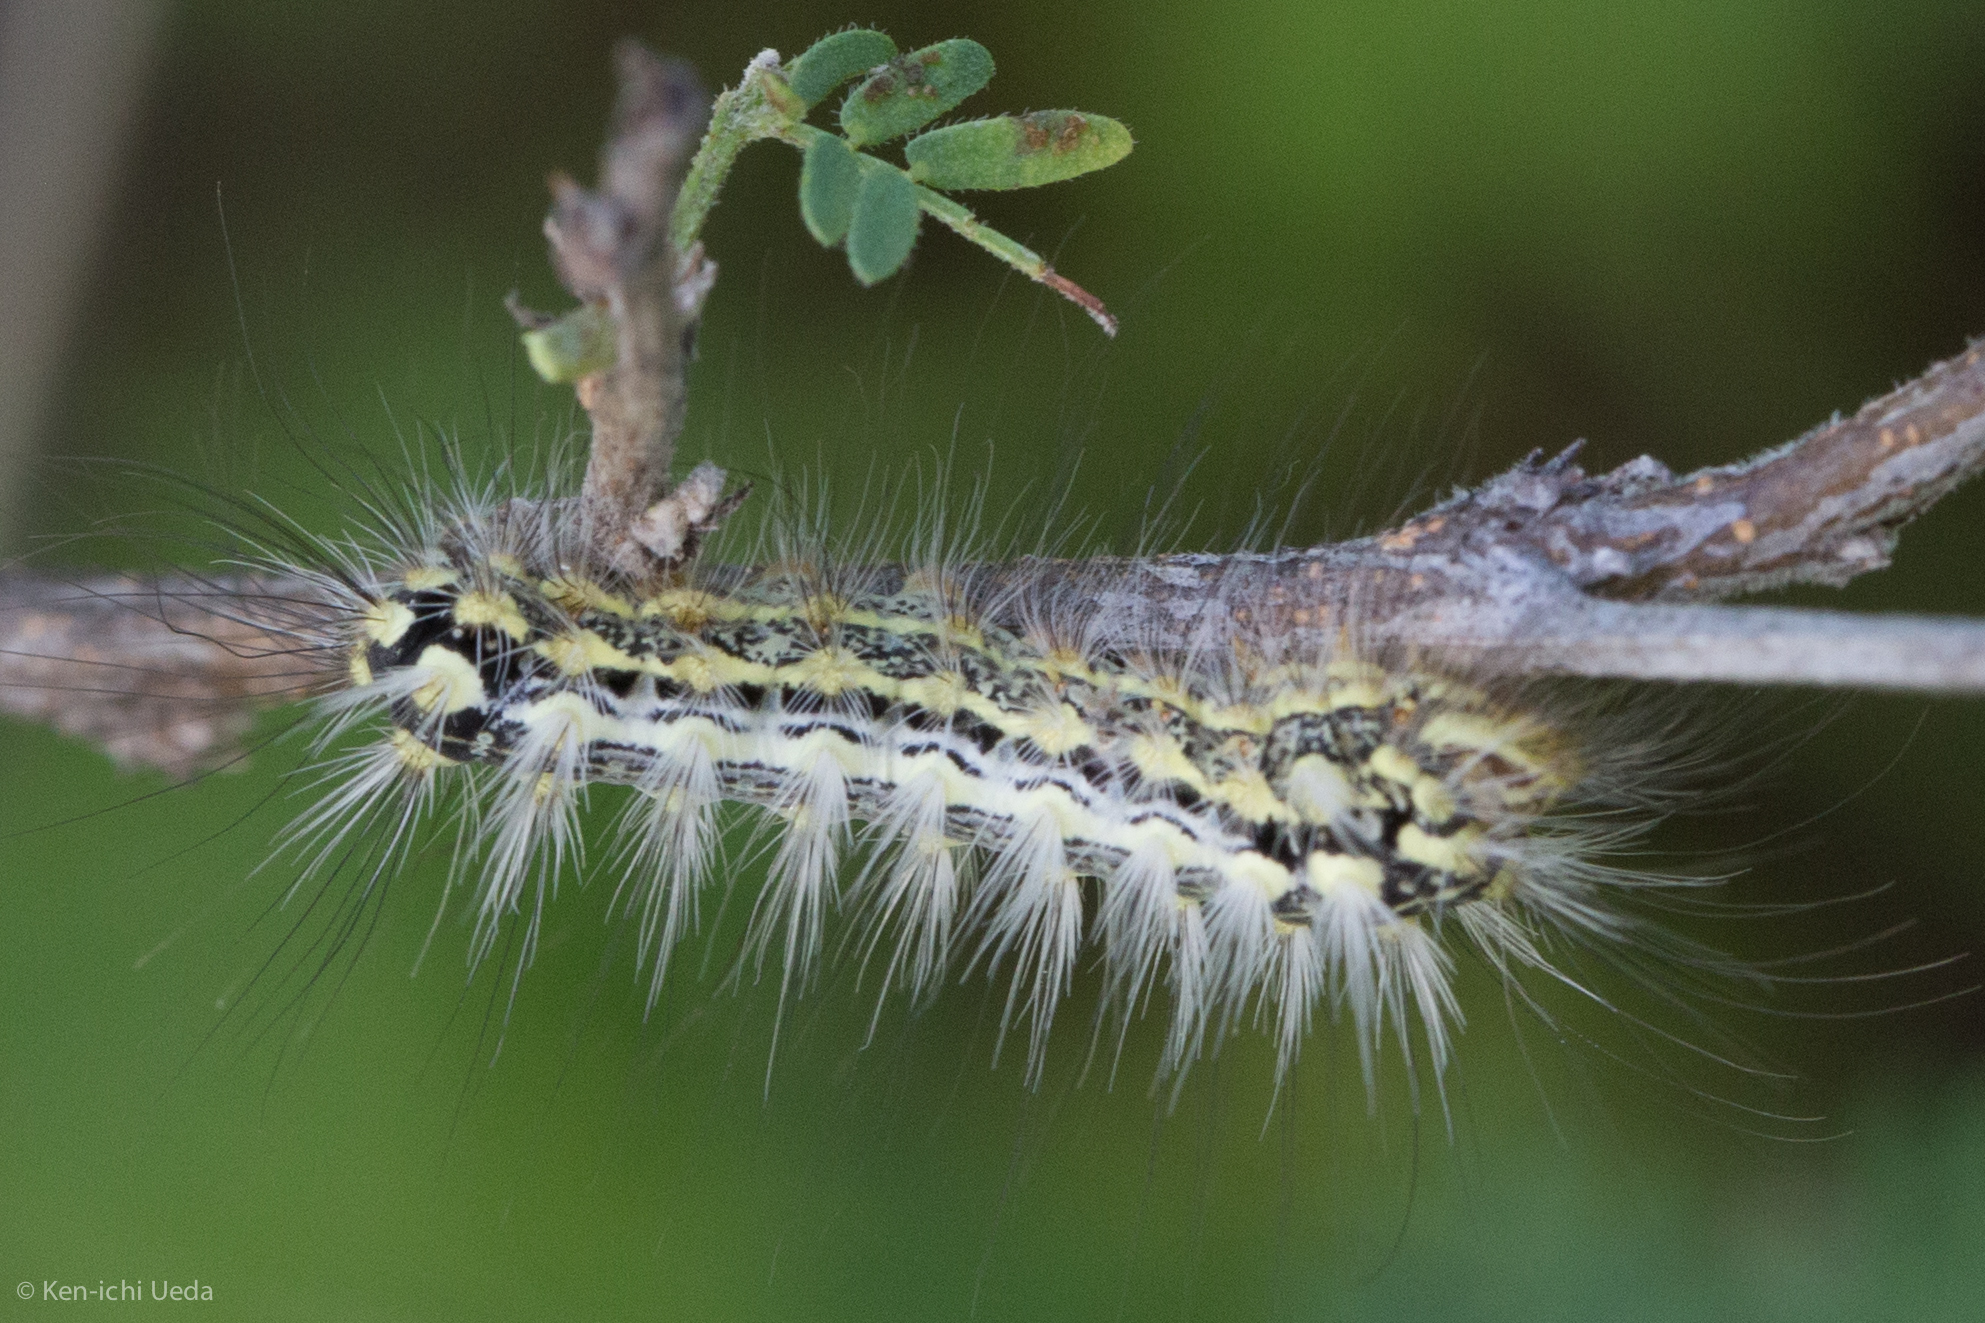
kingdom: Animalia
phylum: Arthropoda
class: Insecta
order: Lepidoptera
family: Megalopygidae
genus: Norape
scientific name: Norape tener
